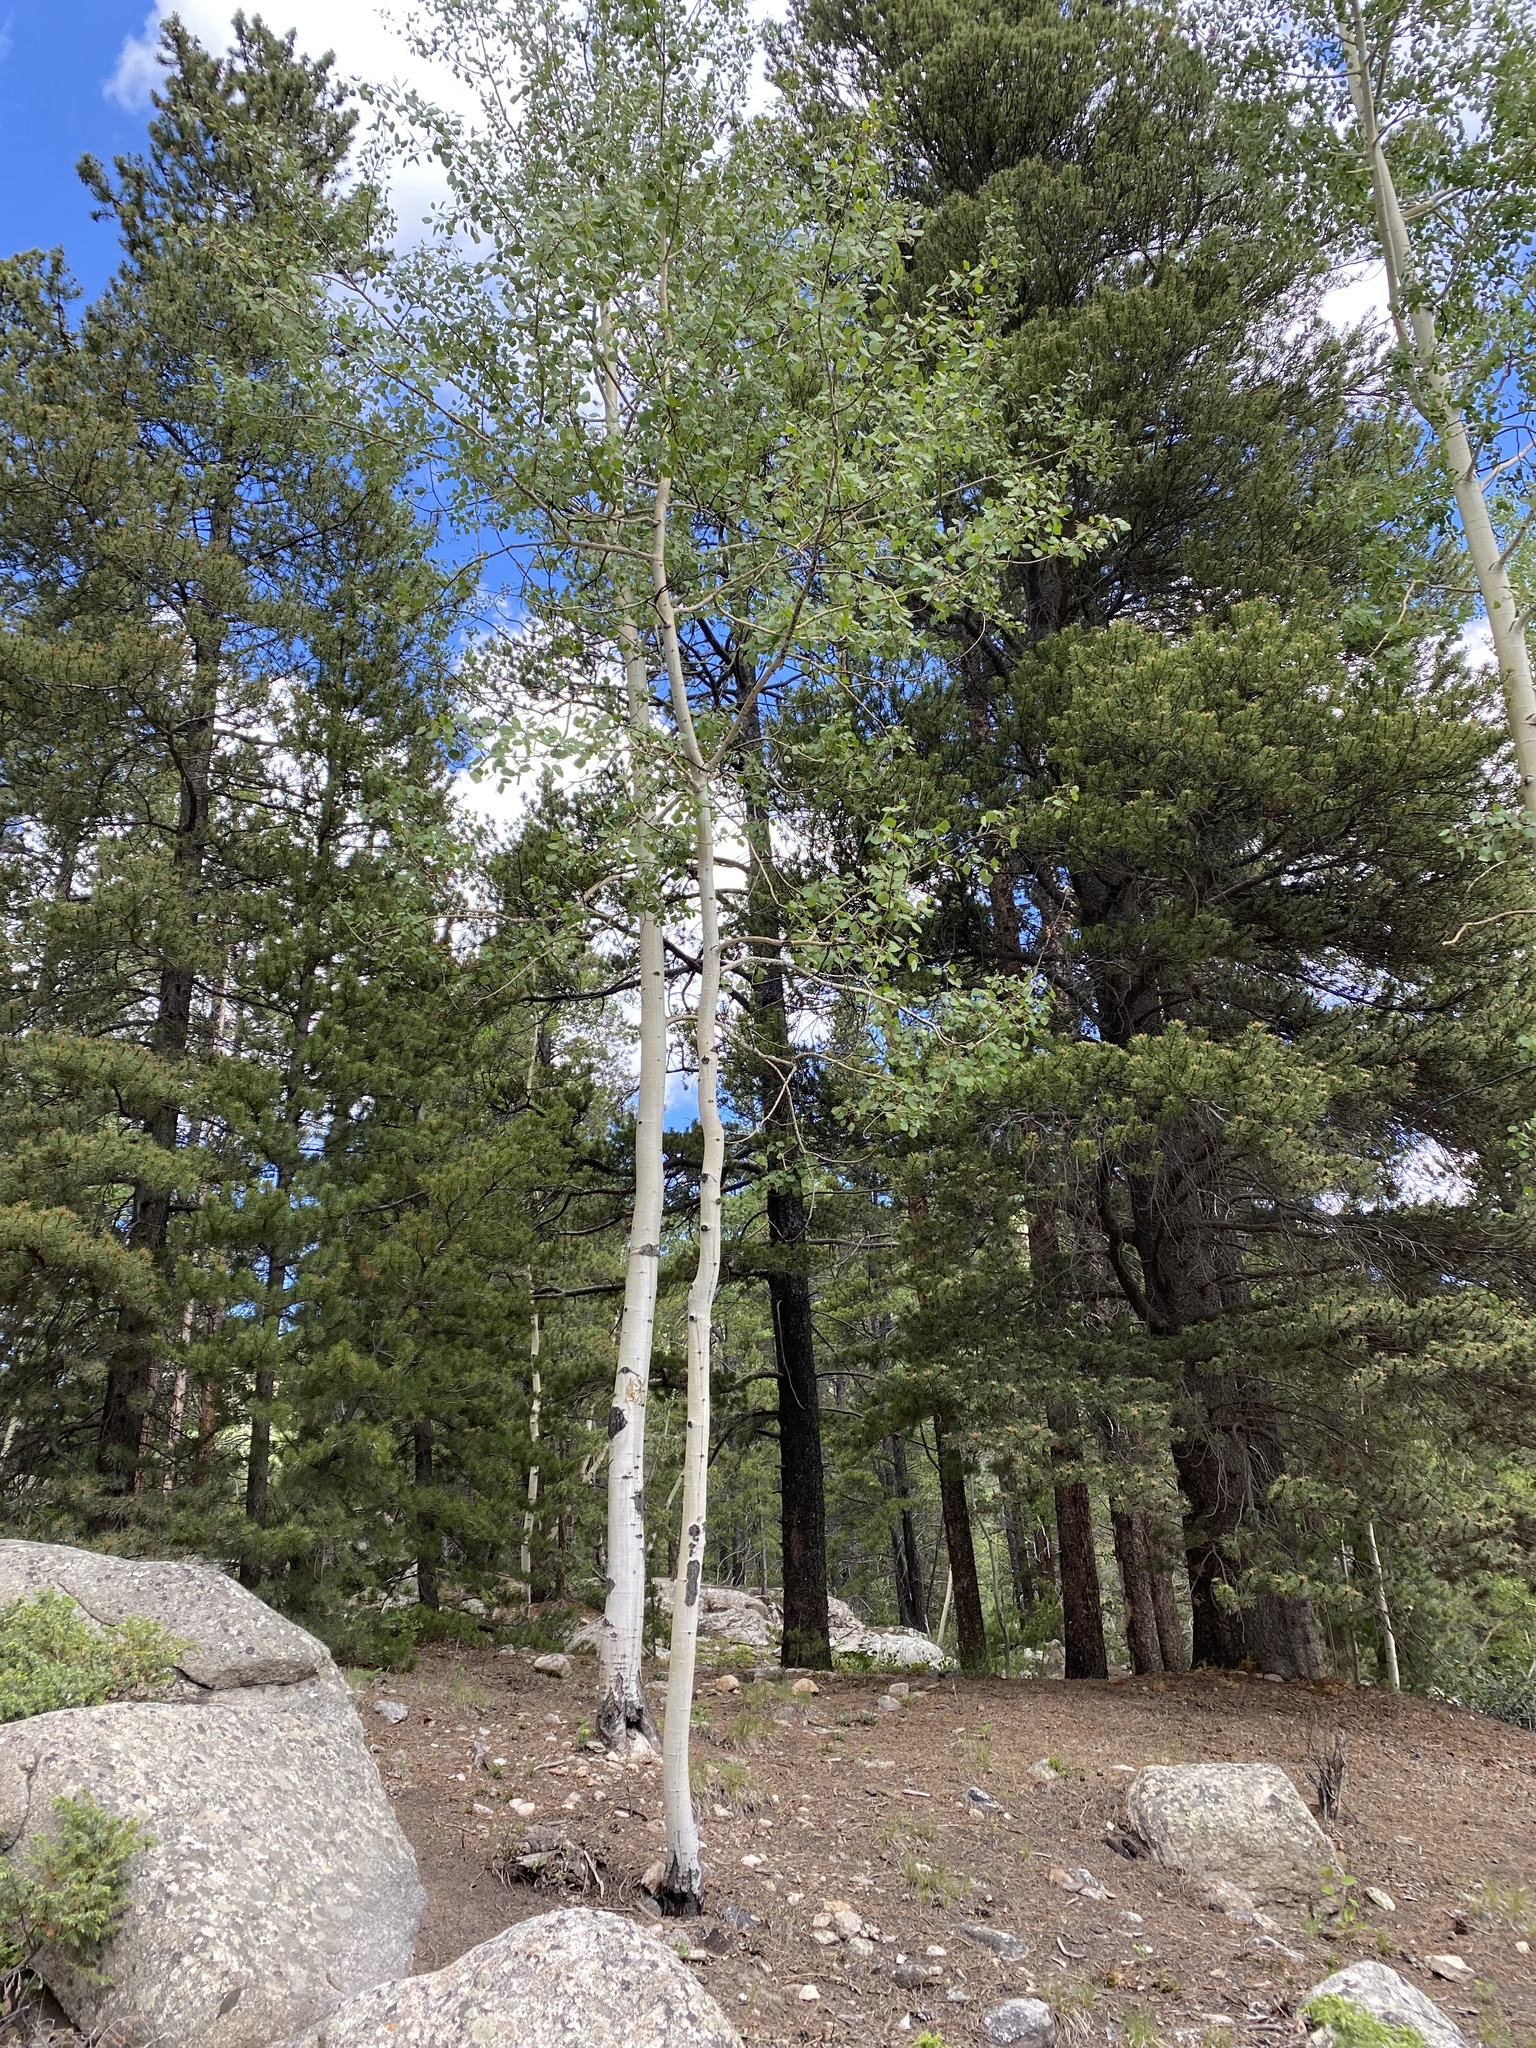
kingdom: Plantae
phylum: Tracheophyta
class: Magnoliopsida
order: Malpighiales
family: Salicaceae
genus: Populus
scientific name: Populus tremuloides
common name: Quaking aspen
